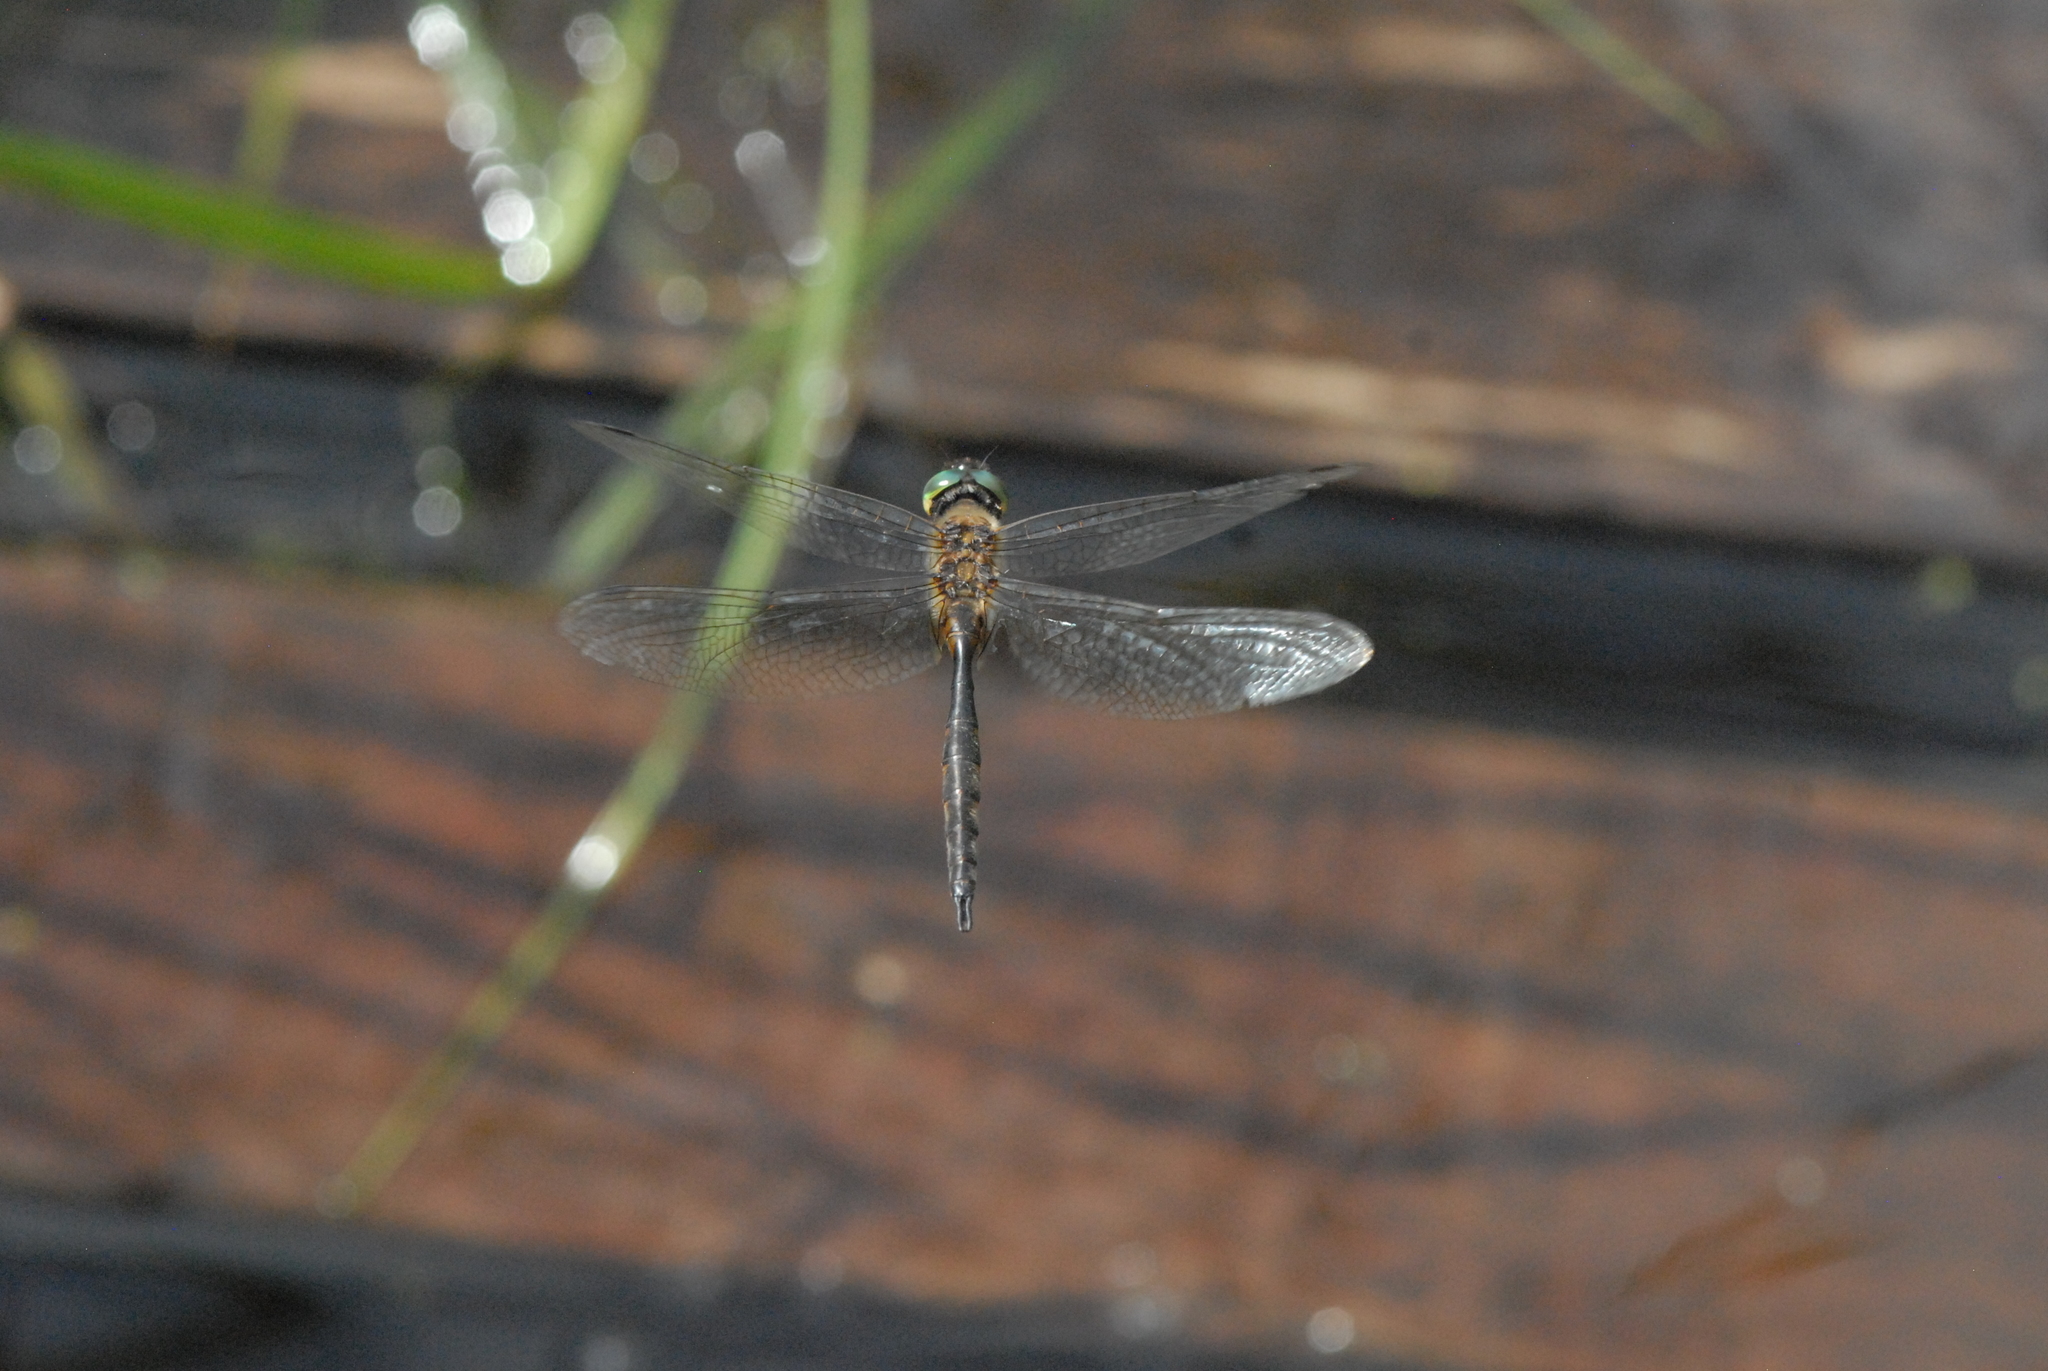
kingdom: Animalia
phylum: Arthropoda
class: Insecta
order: Odonata
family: Corduliidae
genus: Somatochlora
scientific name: Somatochlora flavomaculata
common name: Yellow-spotted emerald
